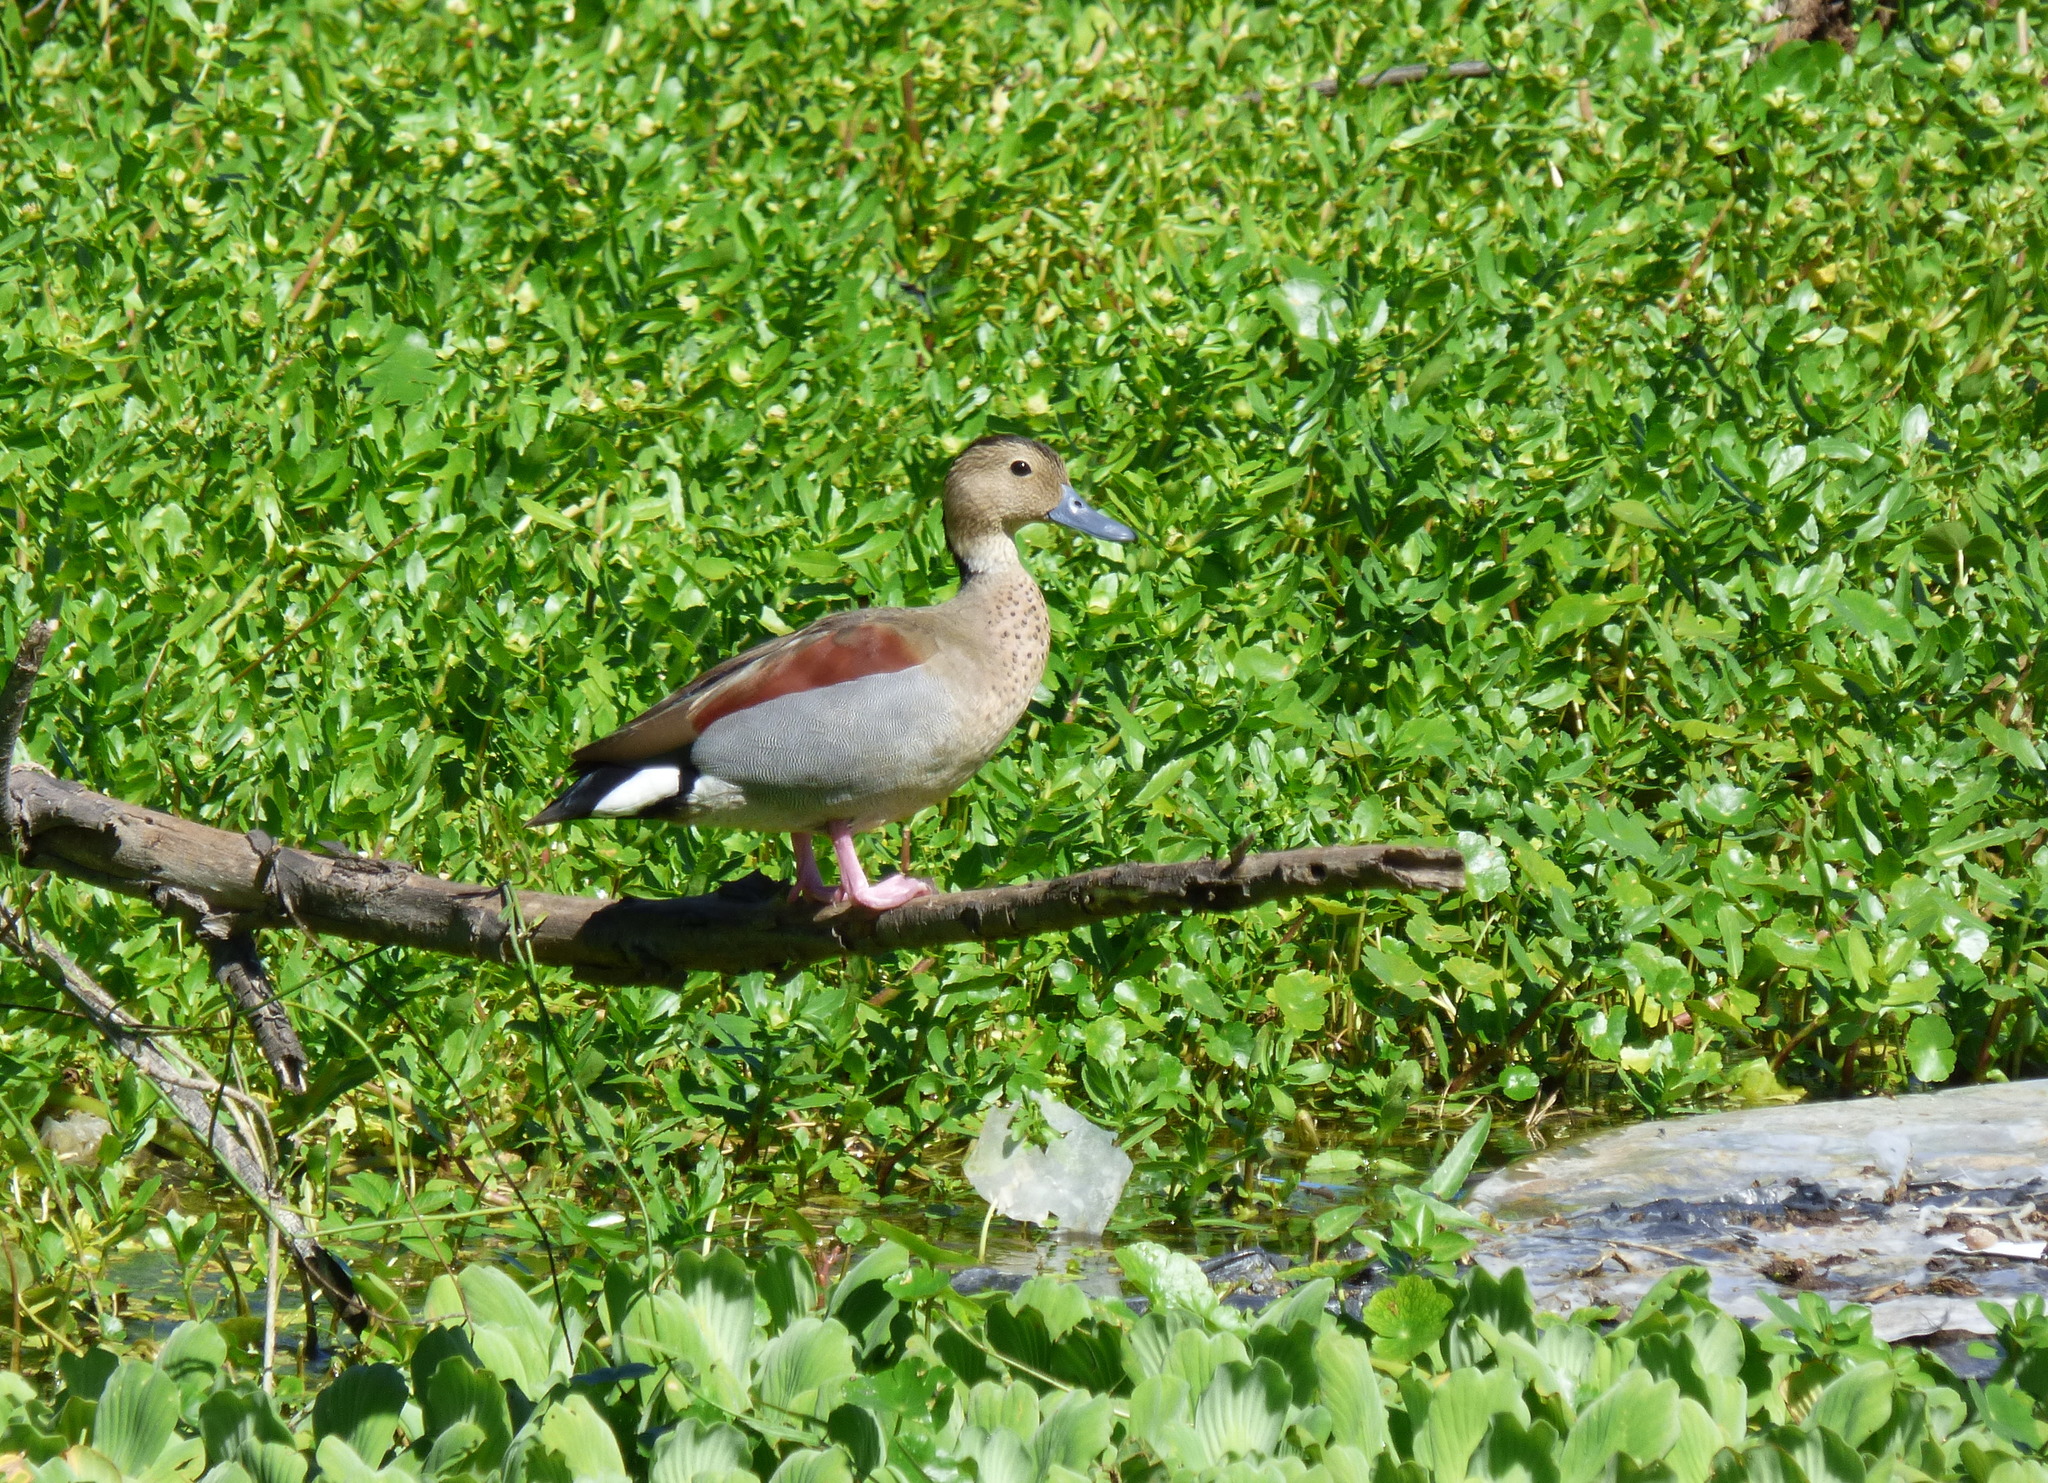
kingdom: Animalia
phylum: Chordata
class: Aves
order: Anseriformes
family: Anatidae
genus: Callonetta
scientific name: Callonetta leucophrys
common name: Ringed teal
